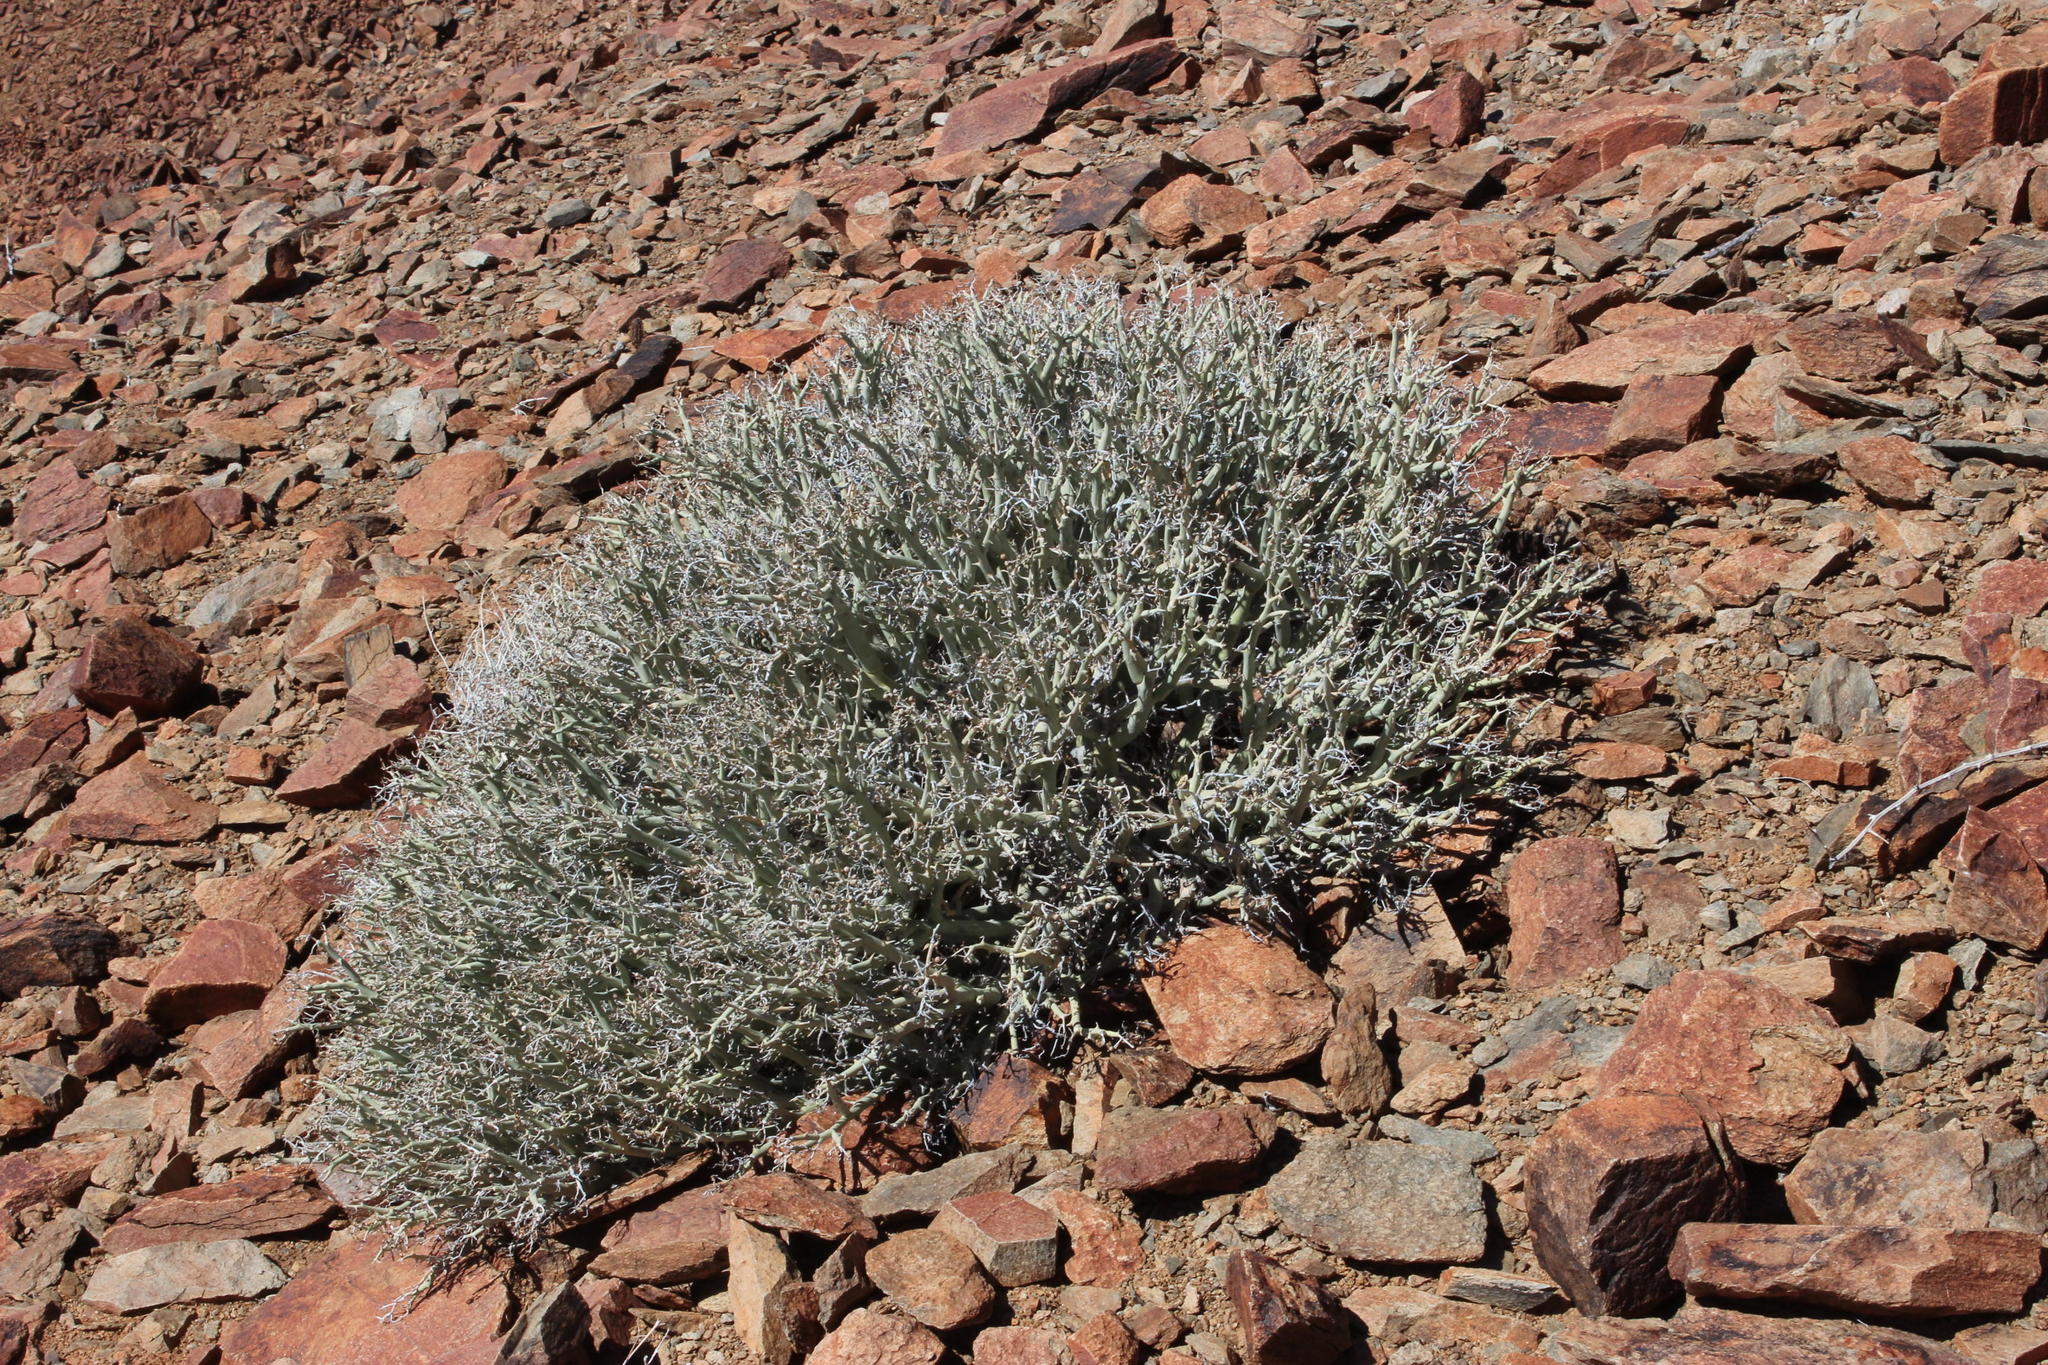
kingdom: Plantae
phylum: Tracheophyta
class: Magnoliopsida
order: Malpighiales
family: Euphorbiaceae
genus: Euphorbia
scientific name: Euphorbia gariepina
